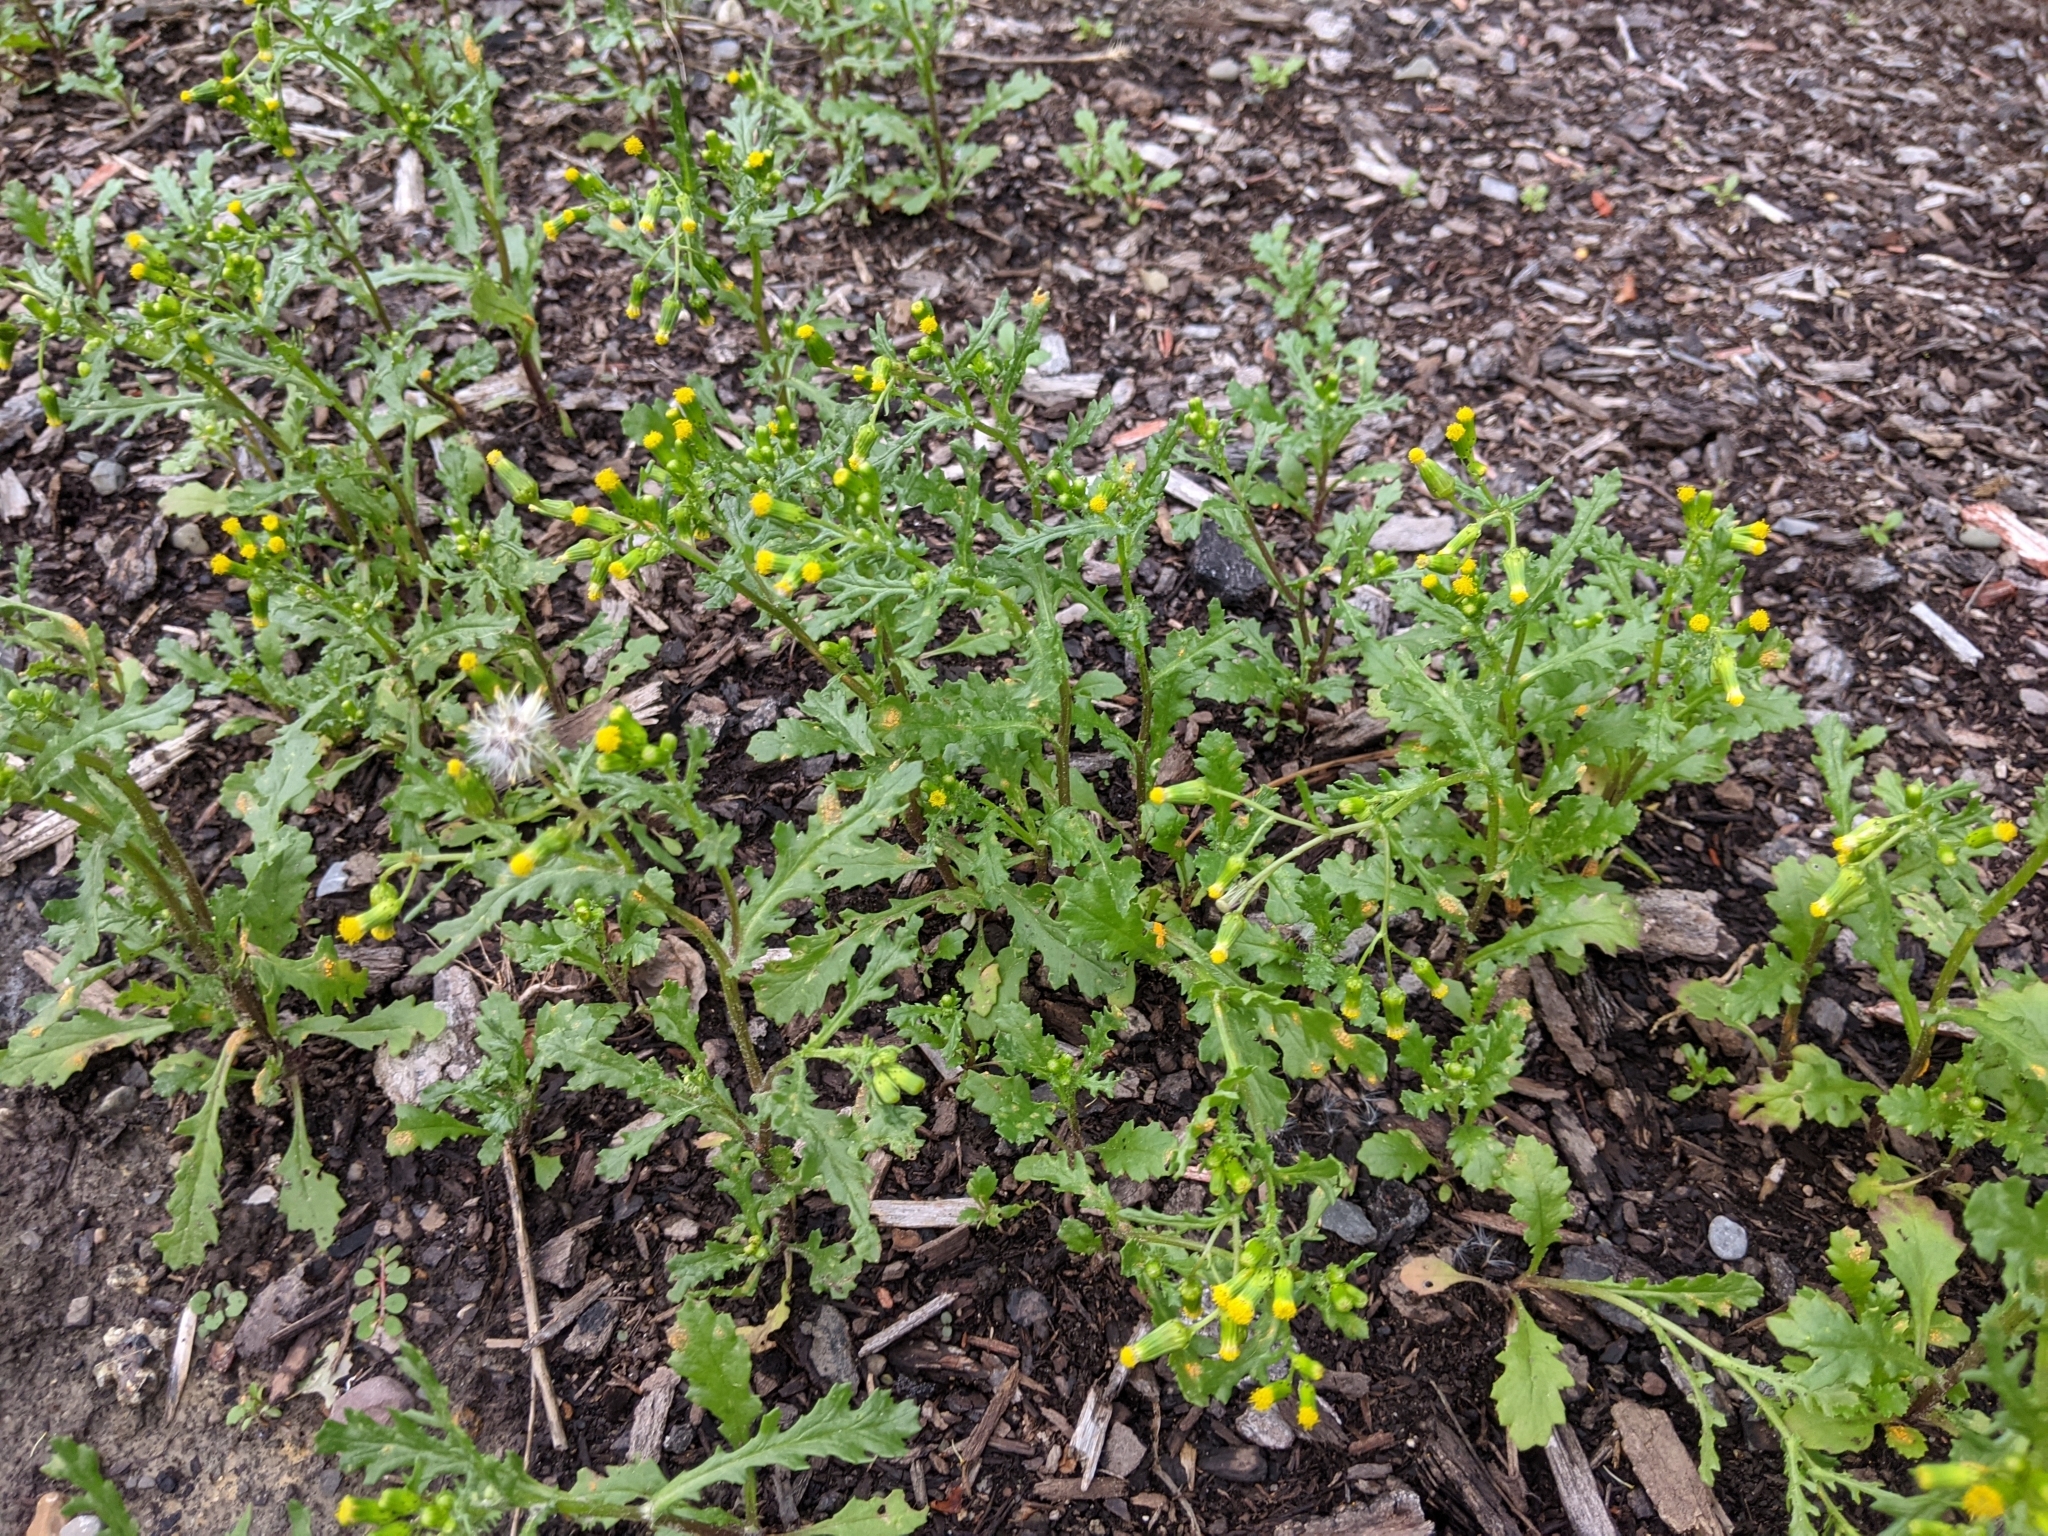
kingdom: Fungi
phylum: Basidiomycota
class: Pucciniomycetes
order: Pucciniales
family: Pucciniaceae
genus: Puccinia
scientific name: Puccinia lagenophorae
